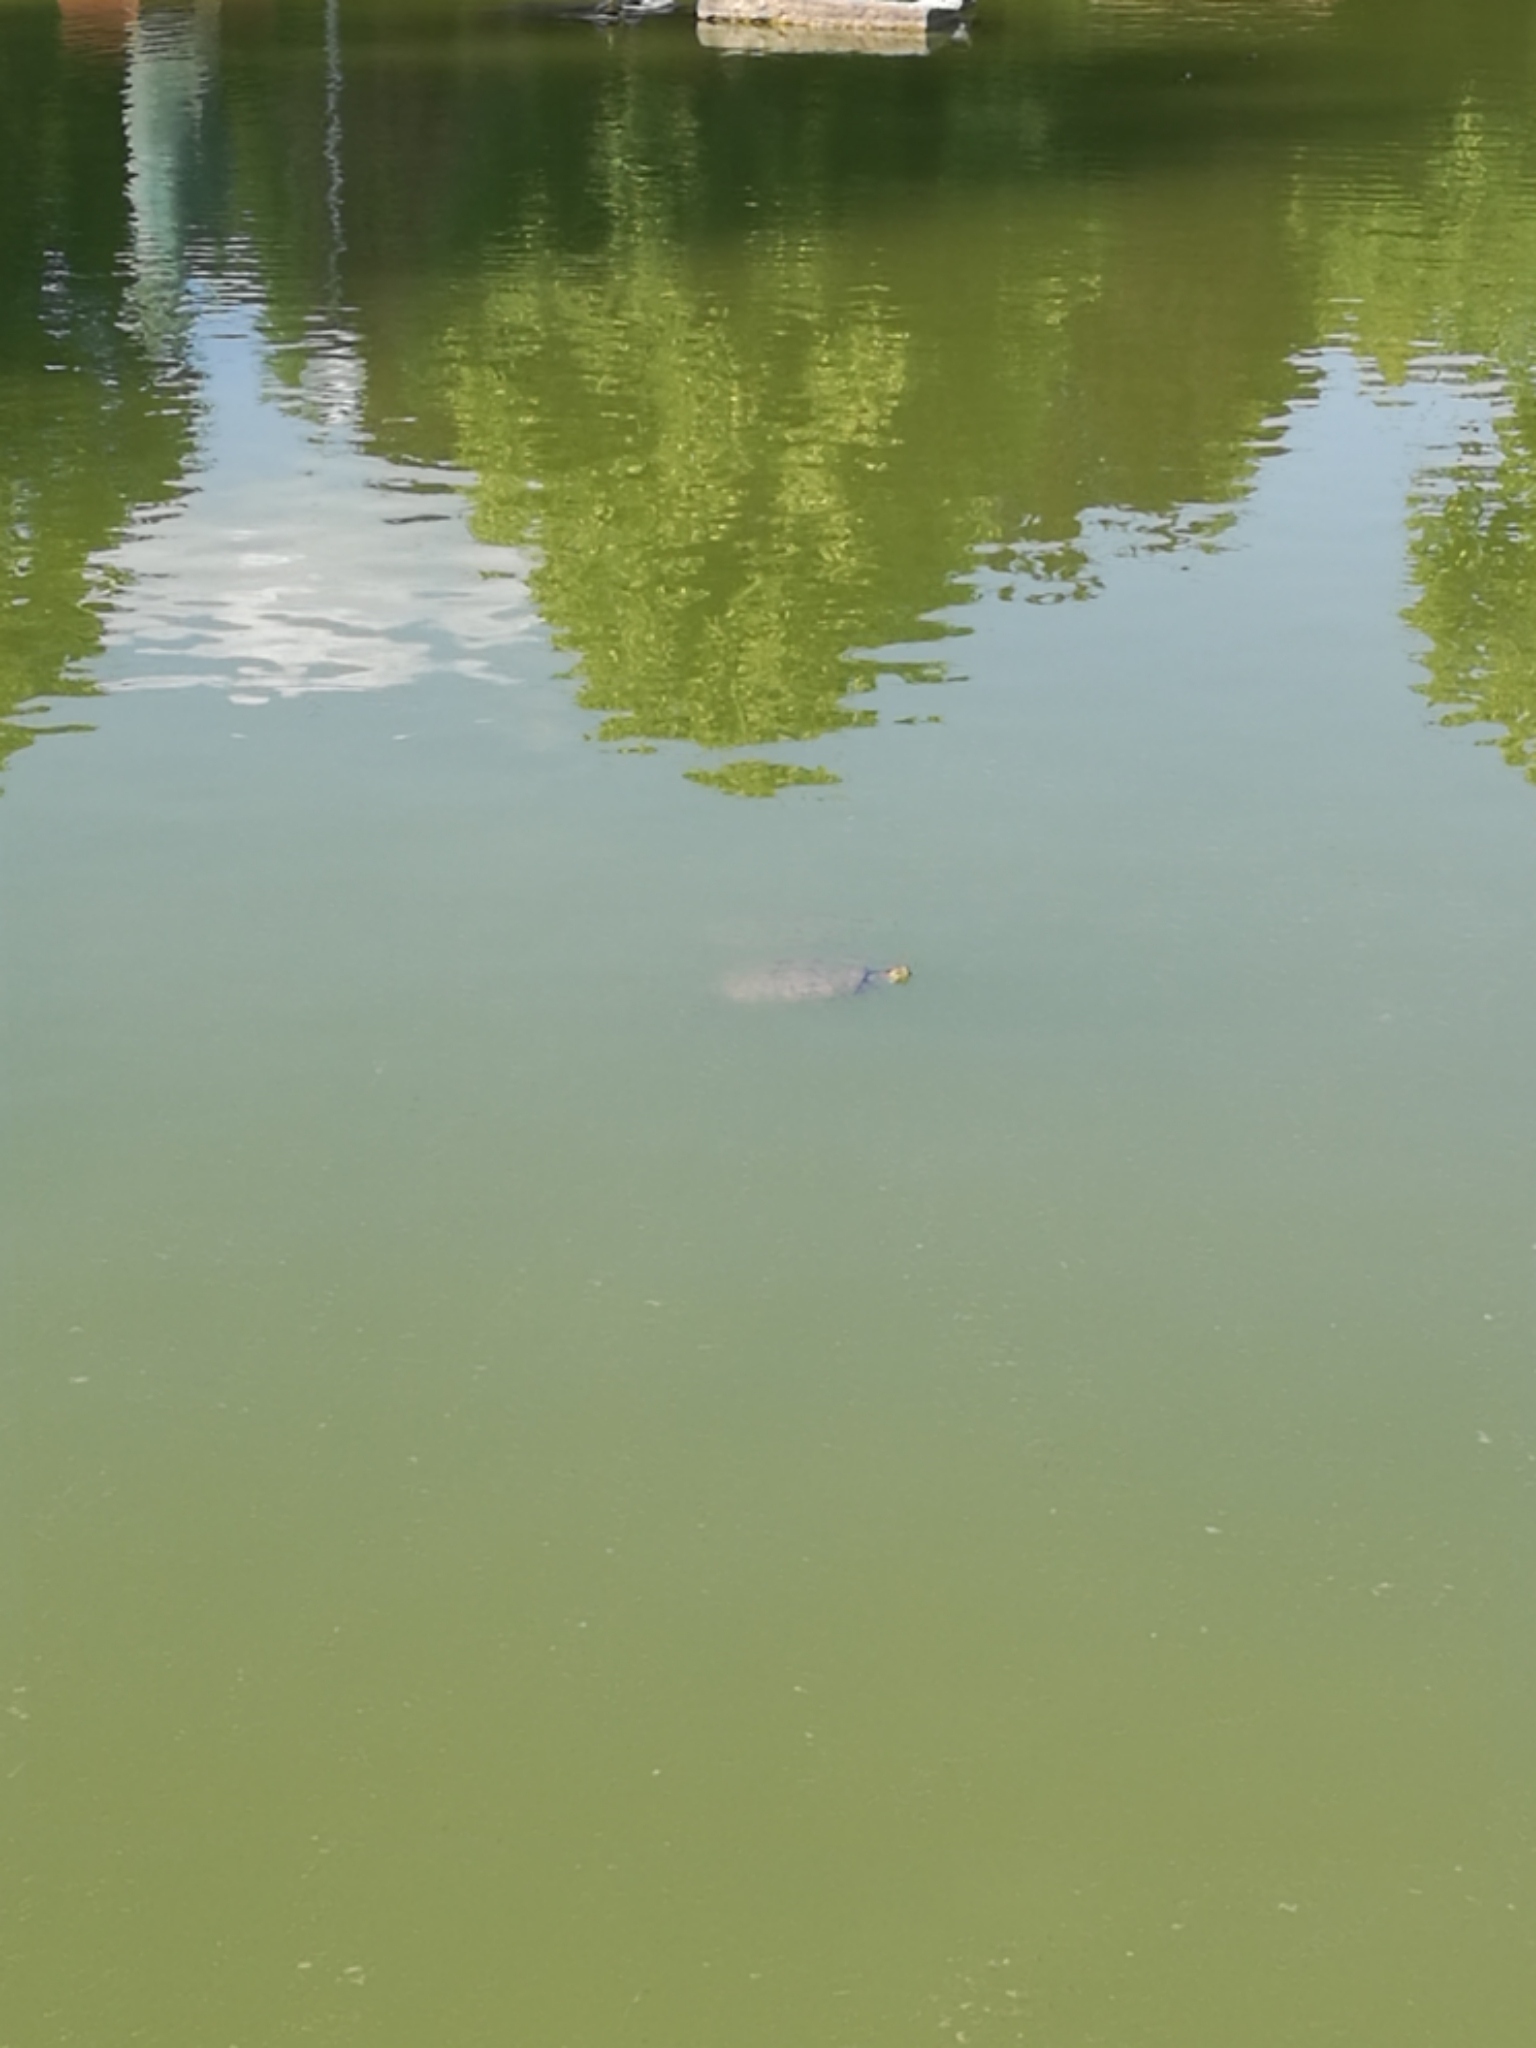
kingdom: Animalia
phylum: Chordata
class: Testudines
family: Emydidae
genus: Trachemys
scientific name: Trachemys scripta
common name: Slider
